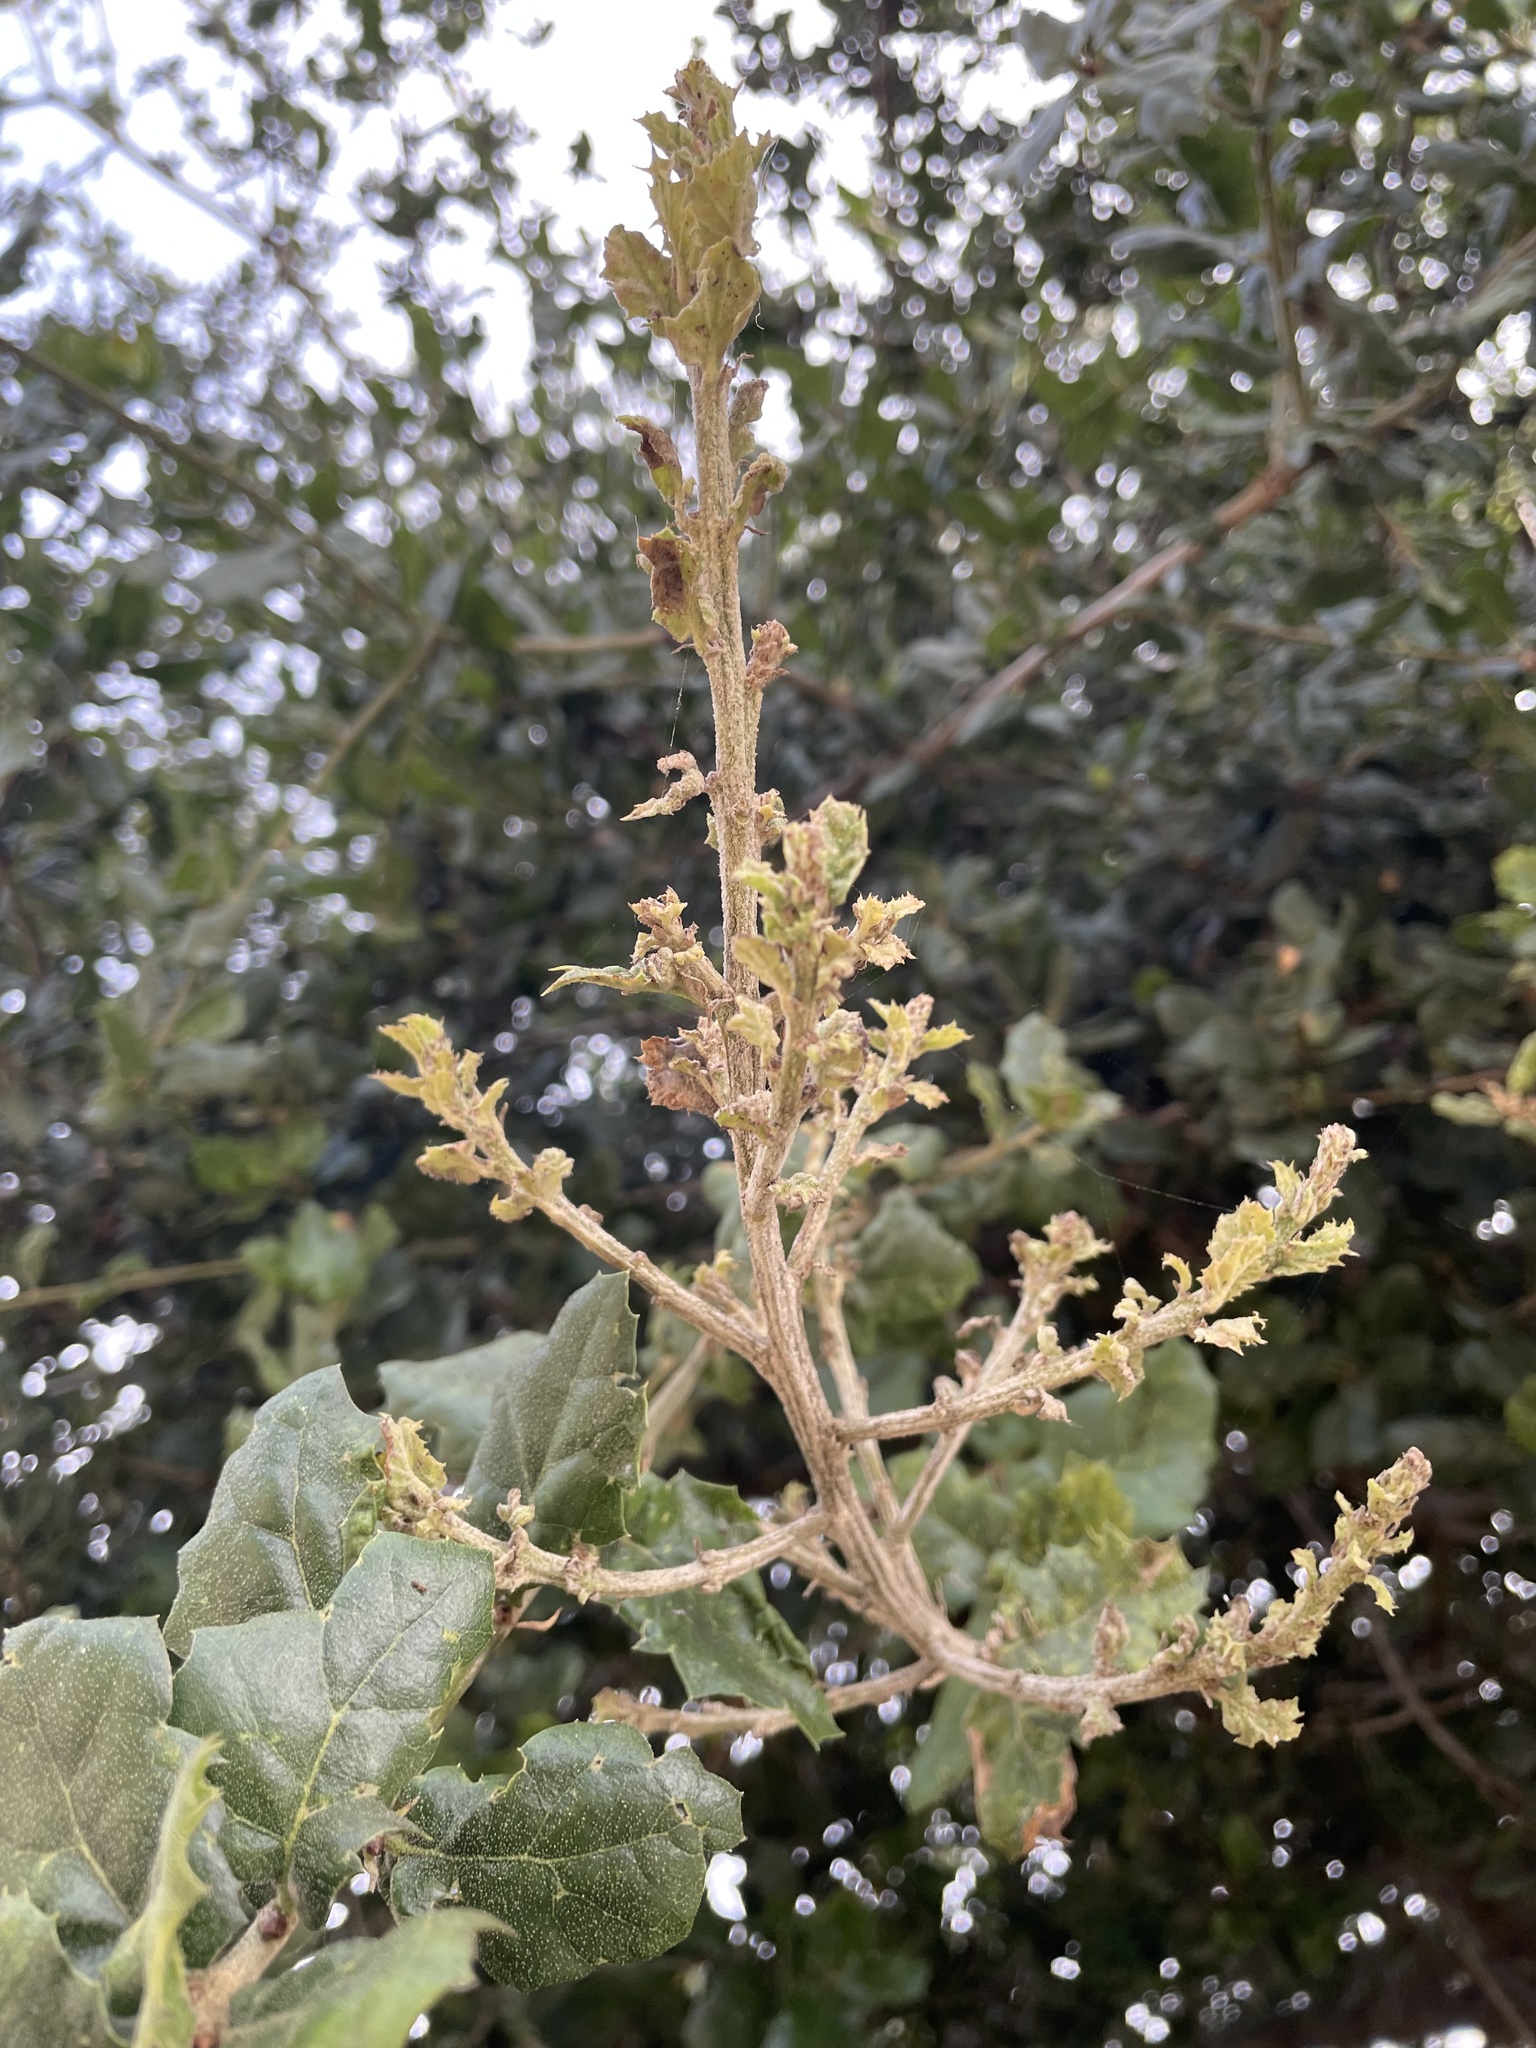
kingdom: Fungi
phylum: Ascomycota
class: Leotiomycetes
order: Helotiales
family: Erysiphaceae
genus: Cystotheca
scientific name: Cystotheca lanestris
